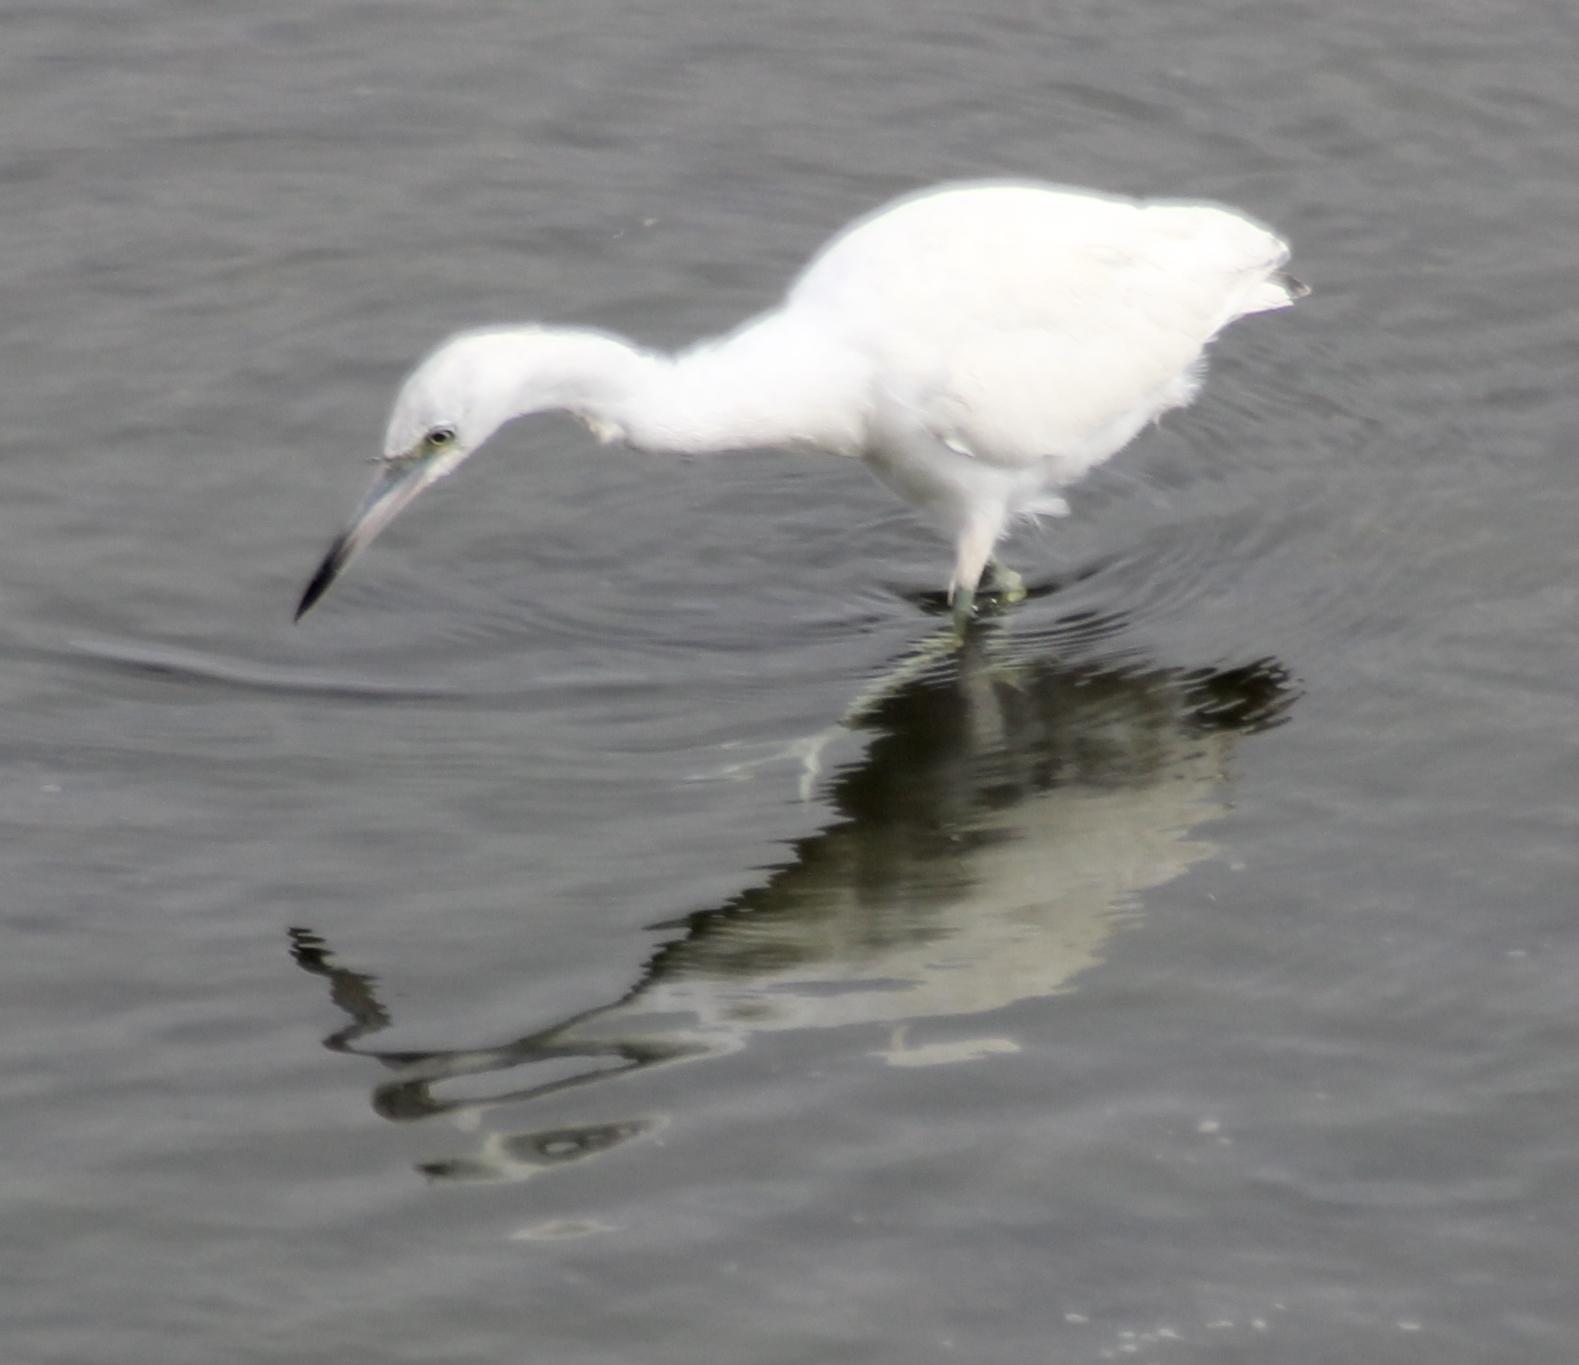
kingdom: Animalia
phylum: Chordata
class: Aves
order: Pelecaniformes
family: Ardeidae
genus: Egretta
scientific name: Egretta caerulea
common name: Little blue heron
